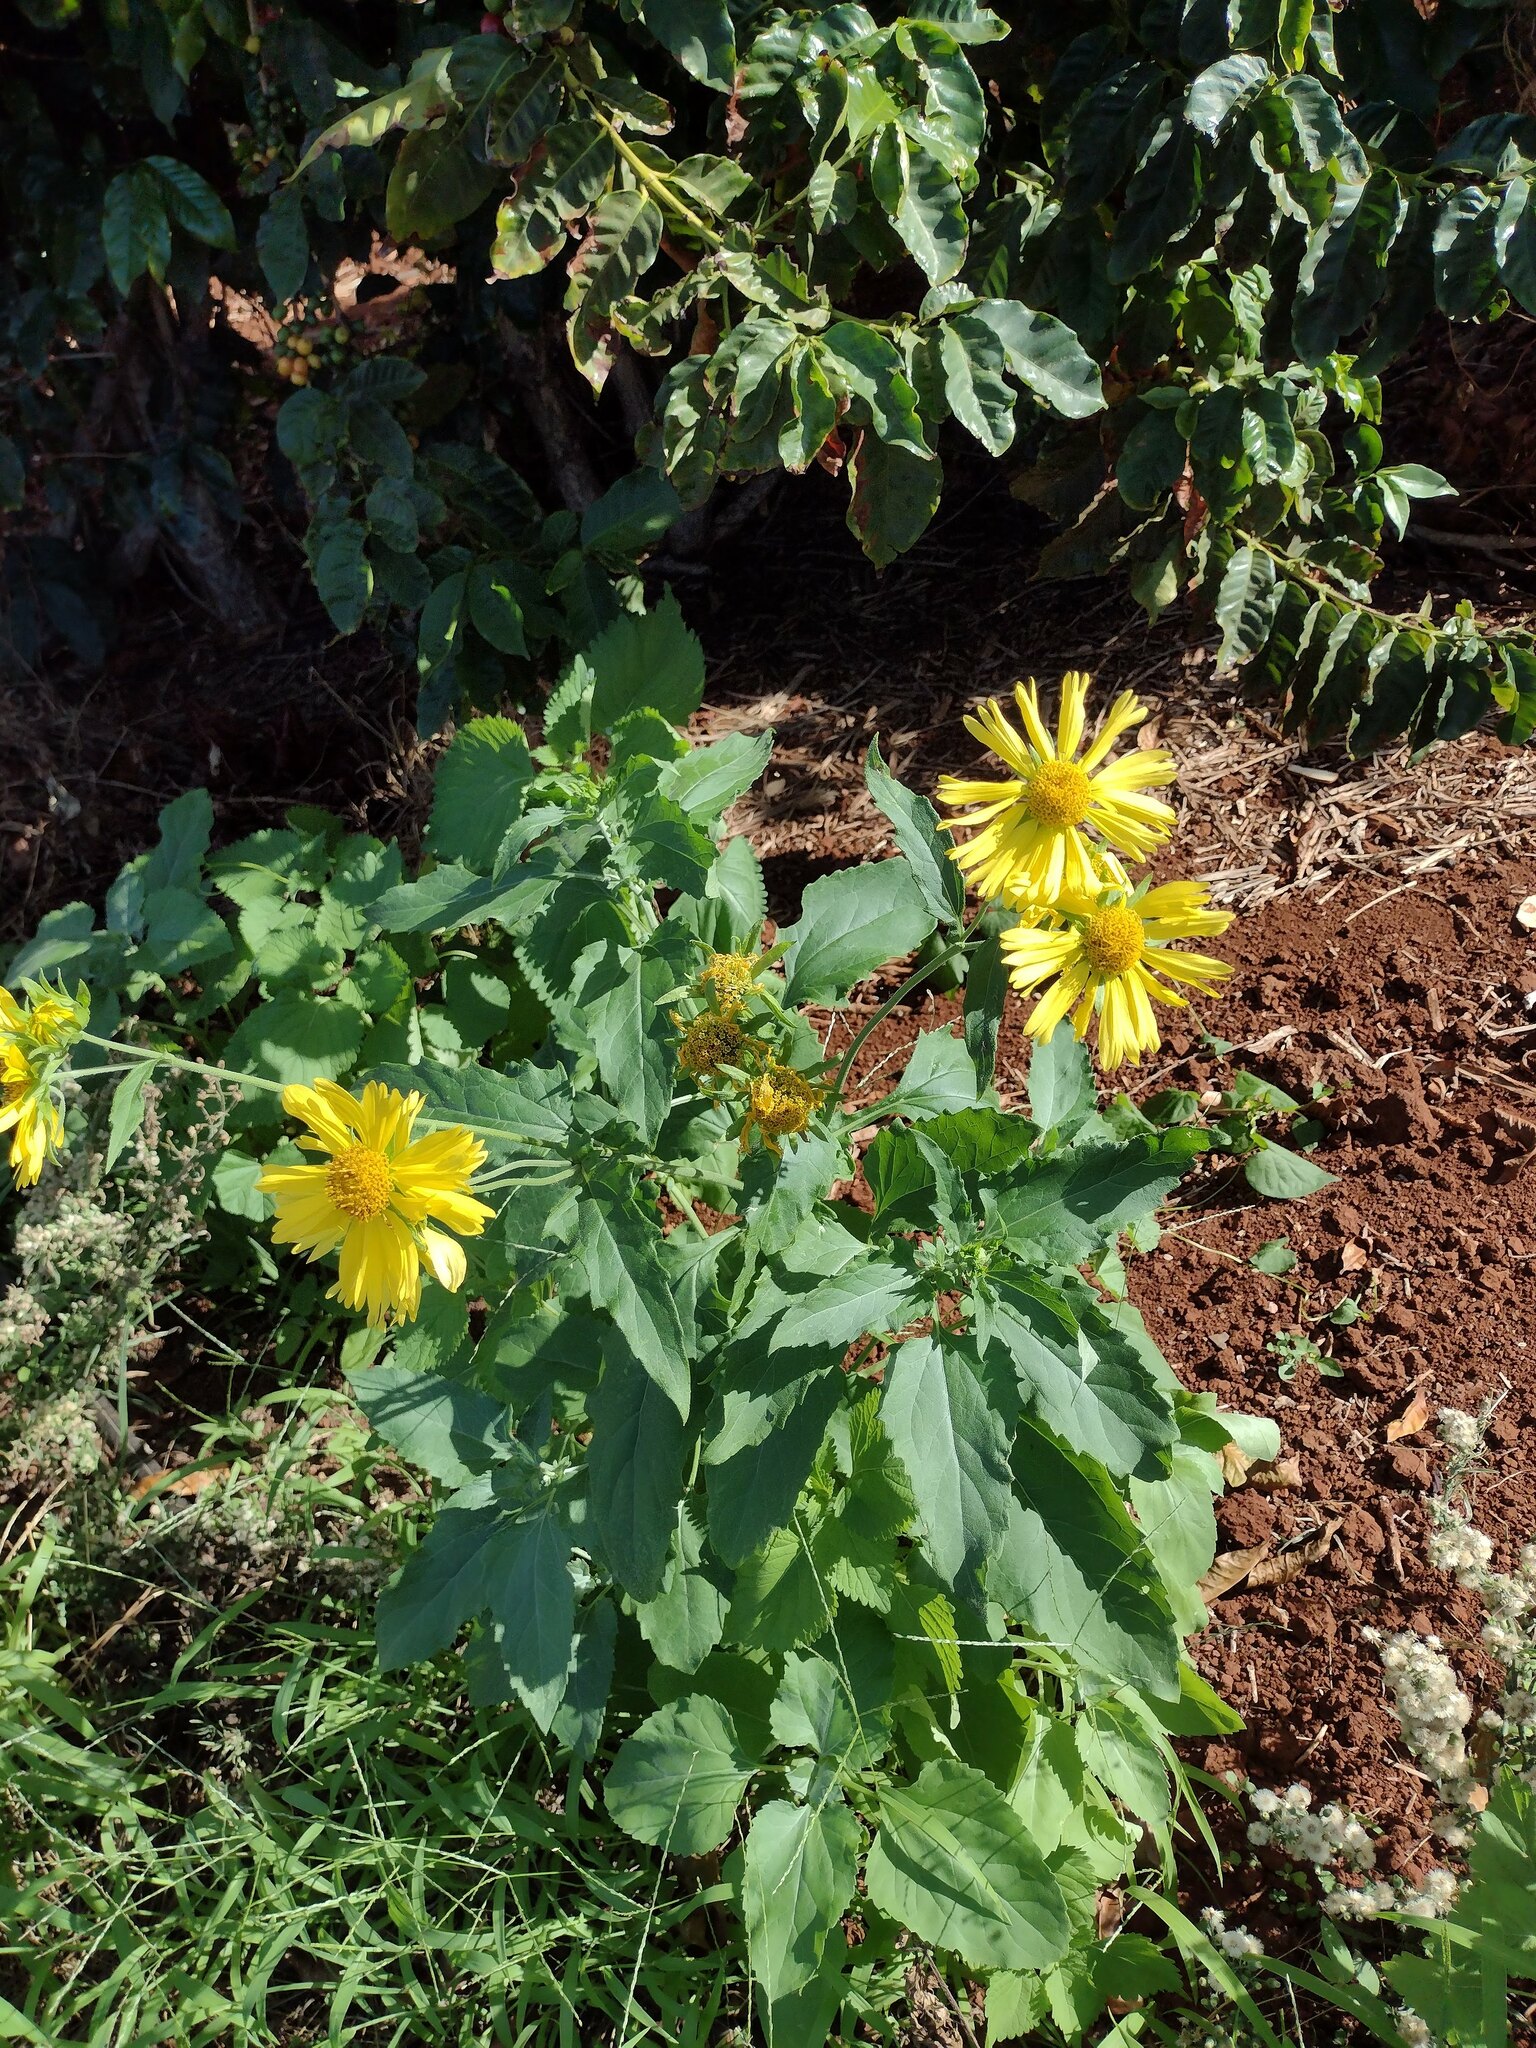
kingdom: Plantae
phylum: Tracheophyta
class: Magnoliopsida
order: Asterales
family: Asteraceae
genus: Verbesina
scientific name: Verbesina encelioides
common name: Golden crownbeard
